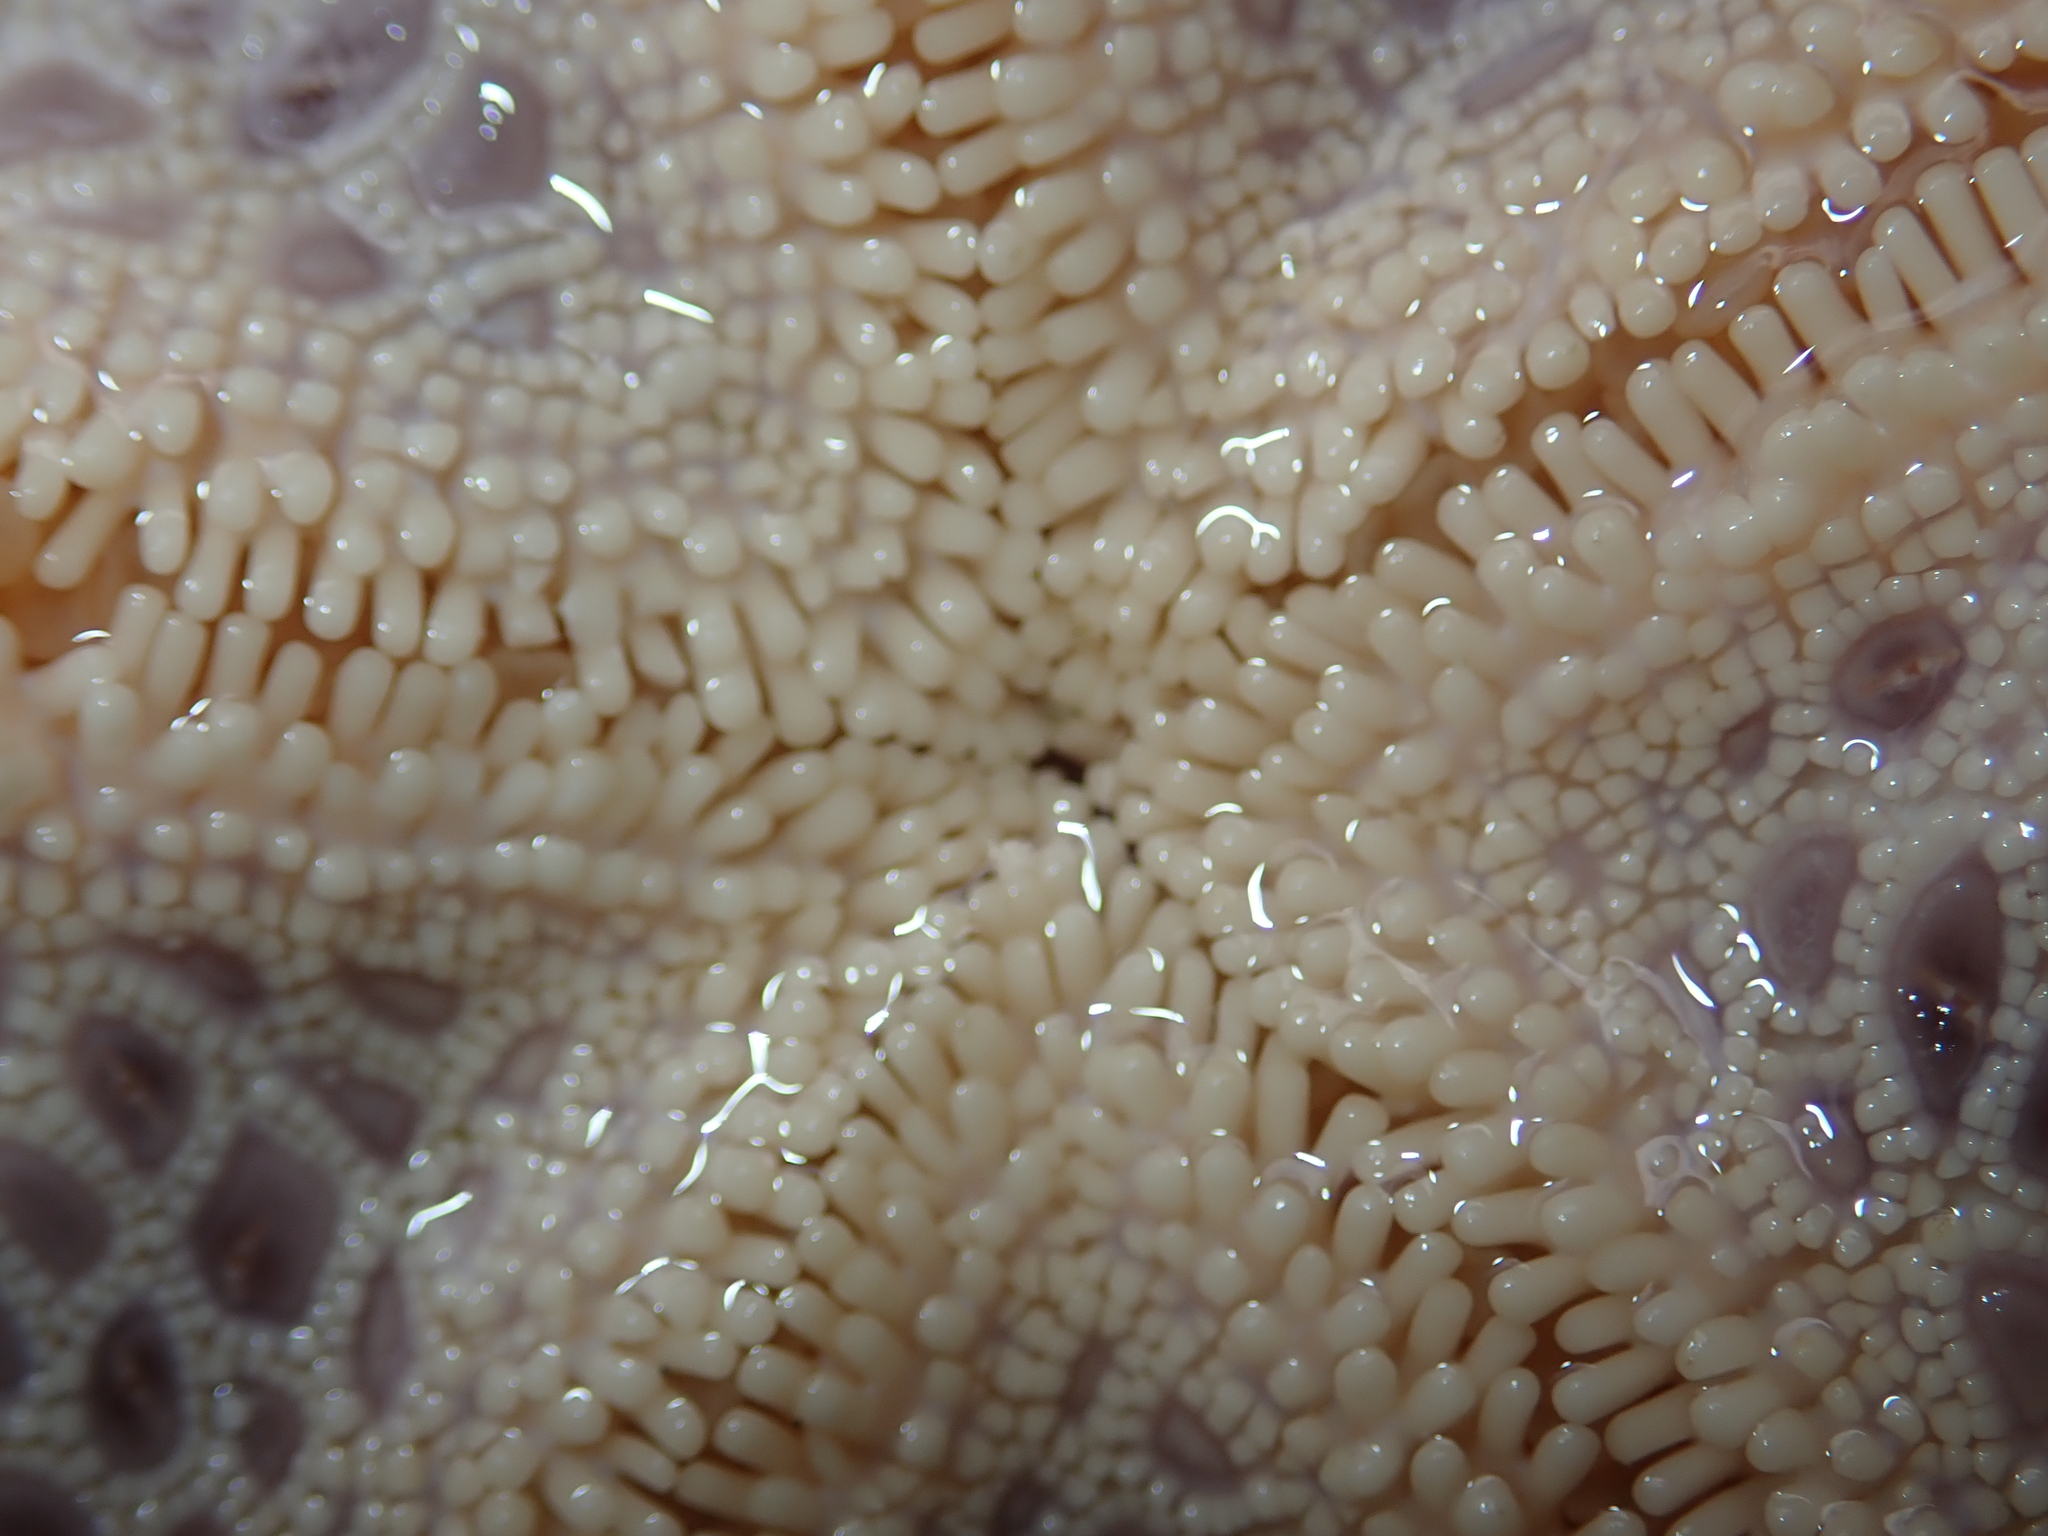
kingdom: Animalia
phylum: Echinodermata
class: Asteroidea
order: Valvatida
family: Goniasteridae
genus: Pentagonaster
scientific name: Pentagonaster pulchellus
